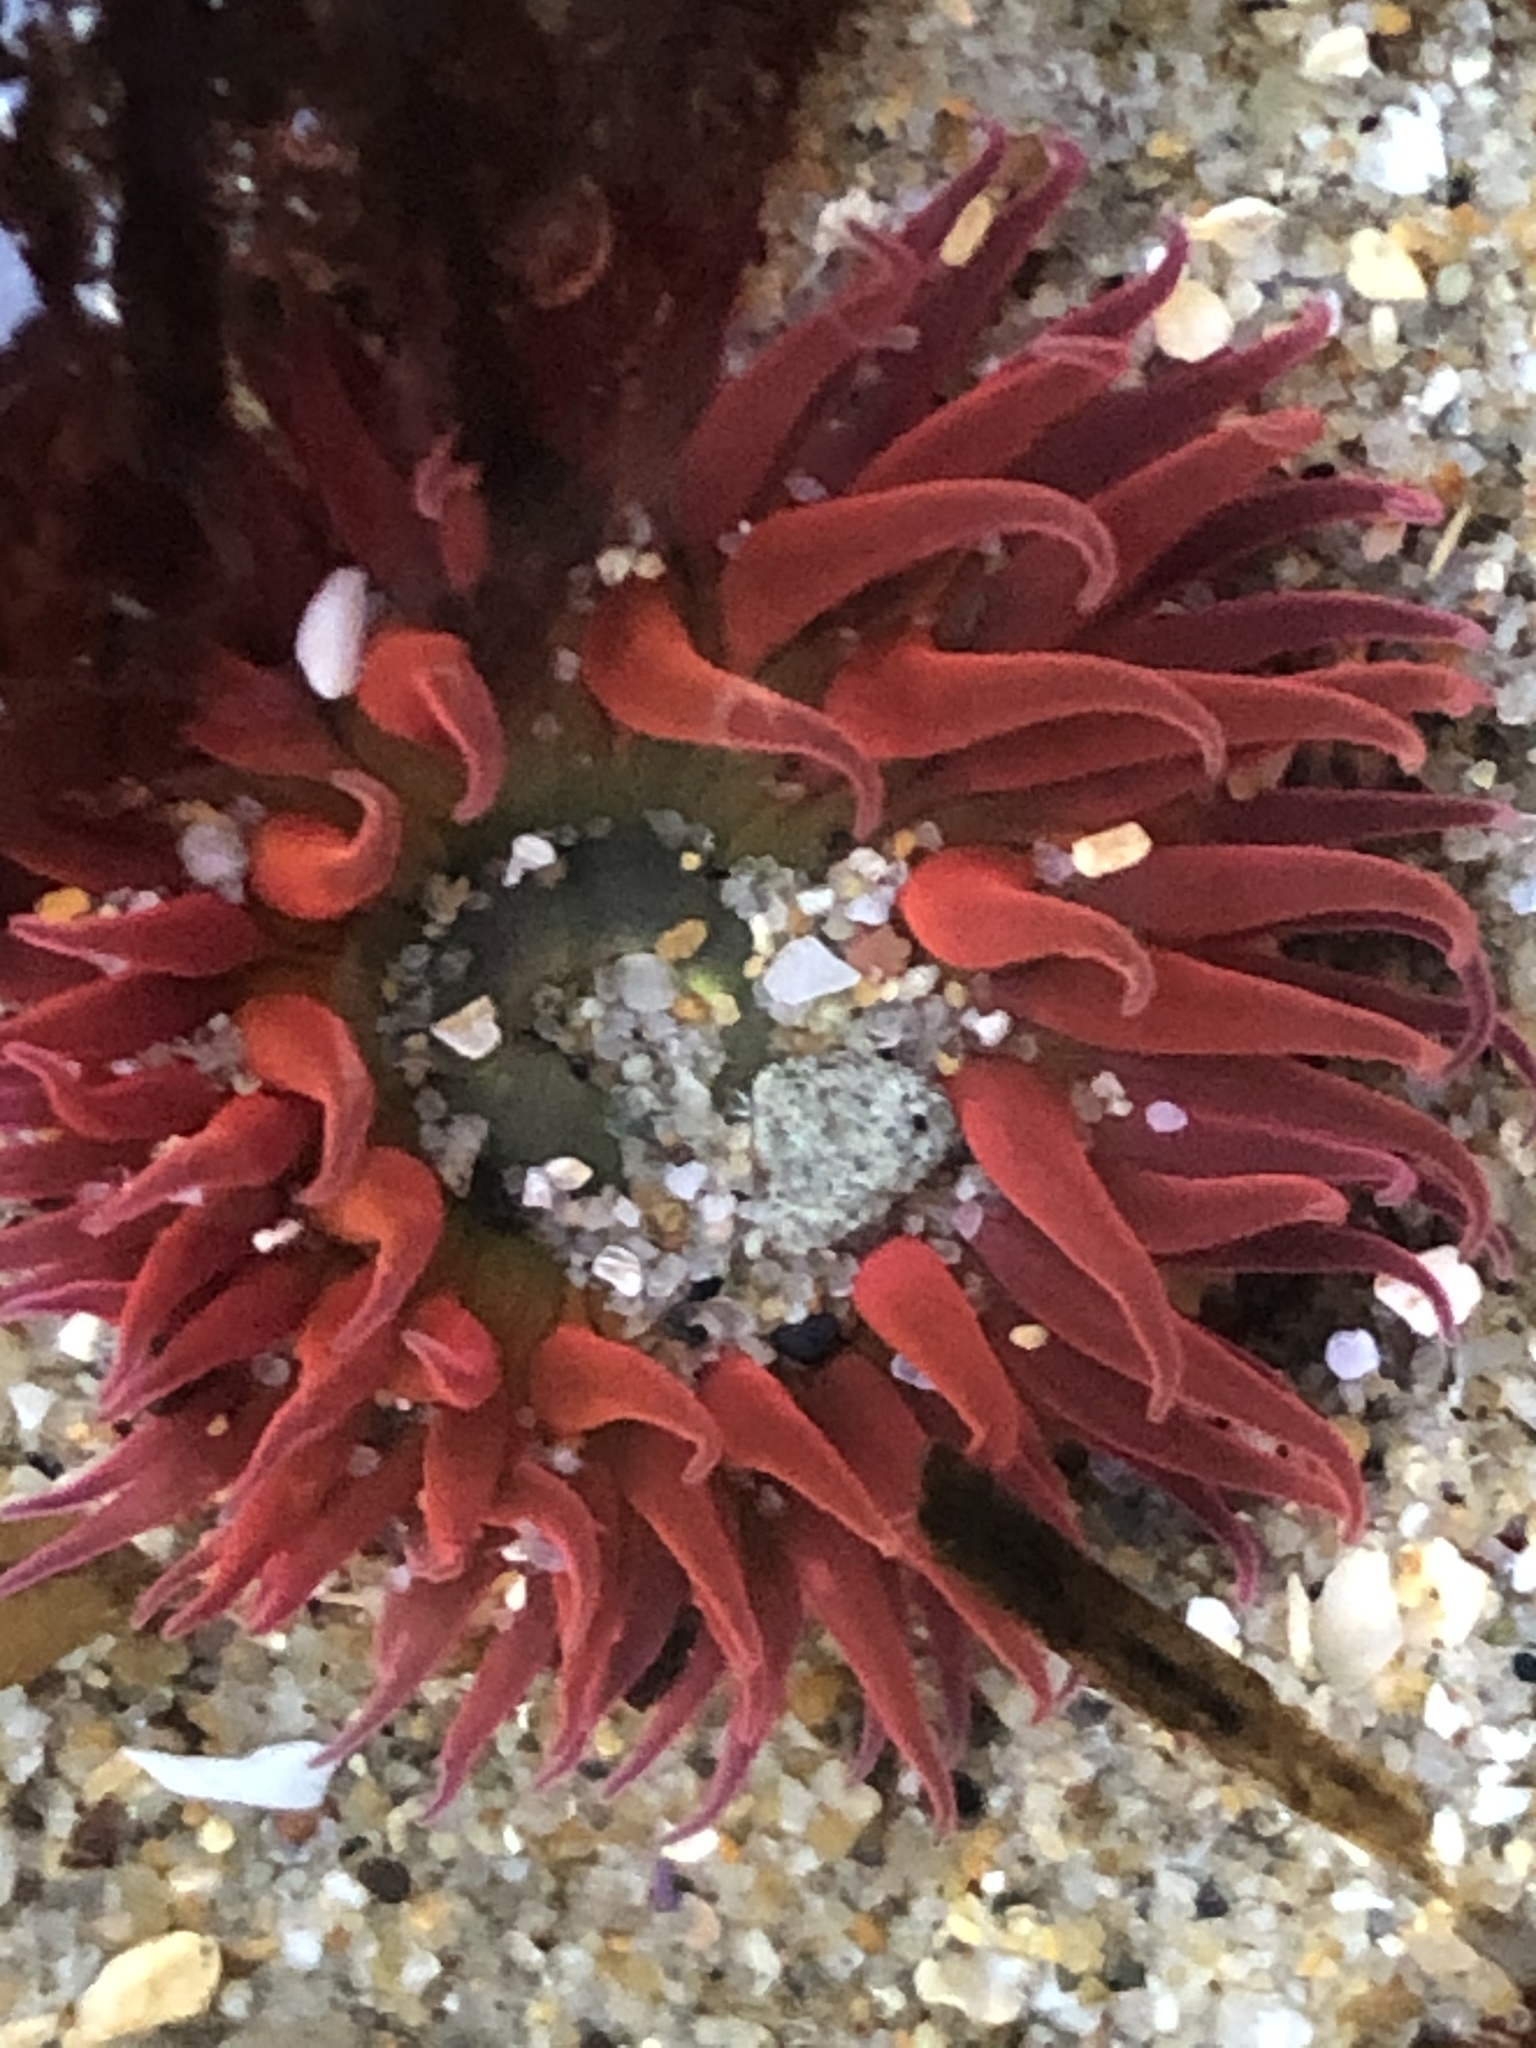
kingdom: Animalia
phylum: Cnidaria
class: Anthozoa
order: Actiniaria
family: Actiniidae
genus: Anthopleura
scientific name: Anthopleura artemisia
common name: Buried sea anemone
